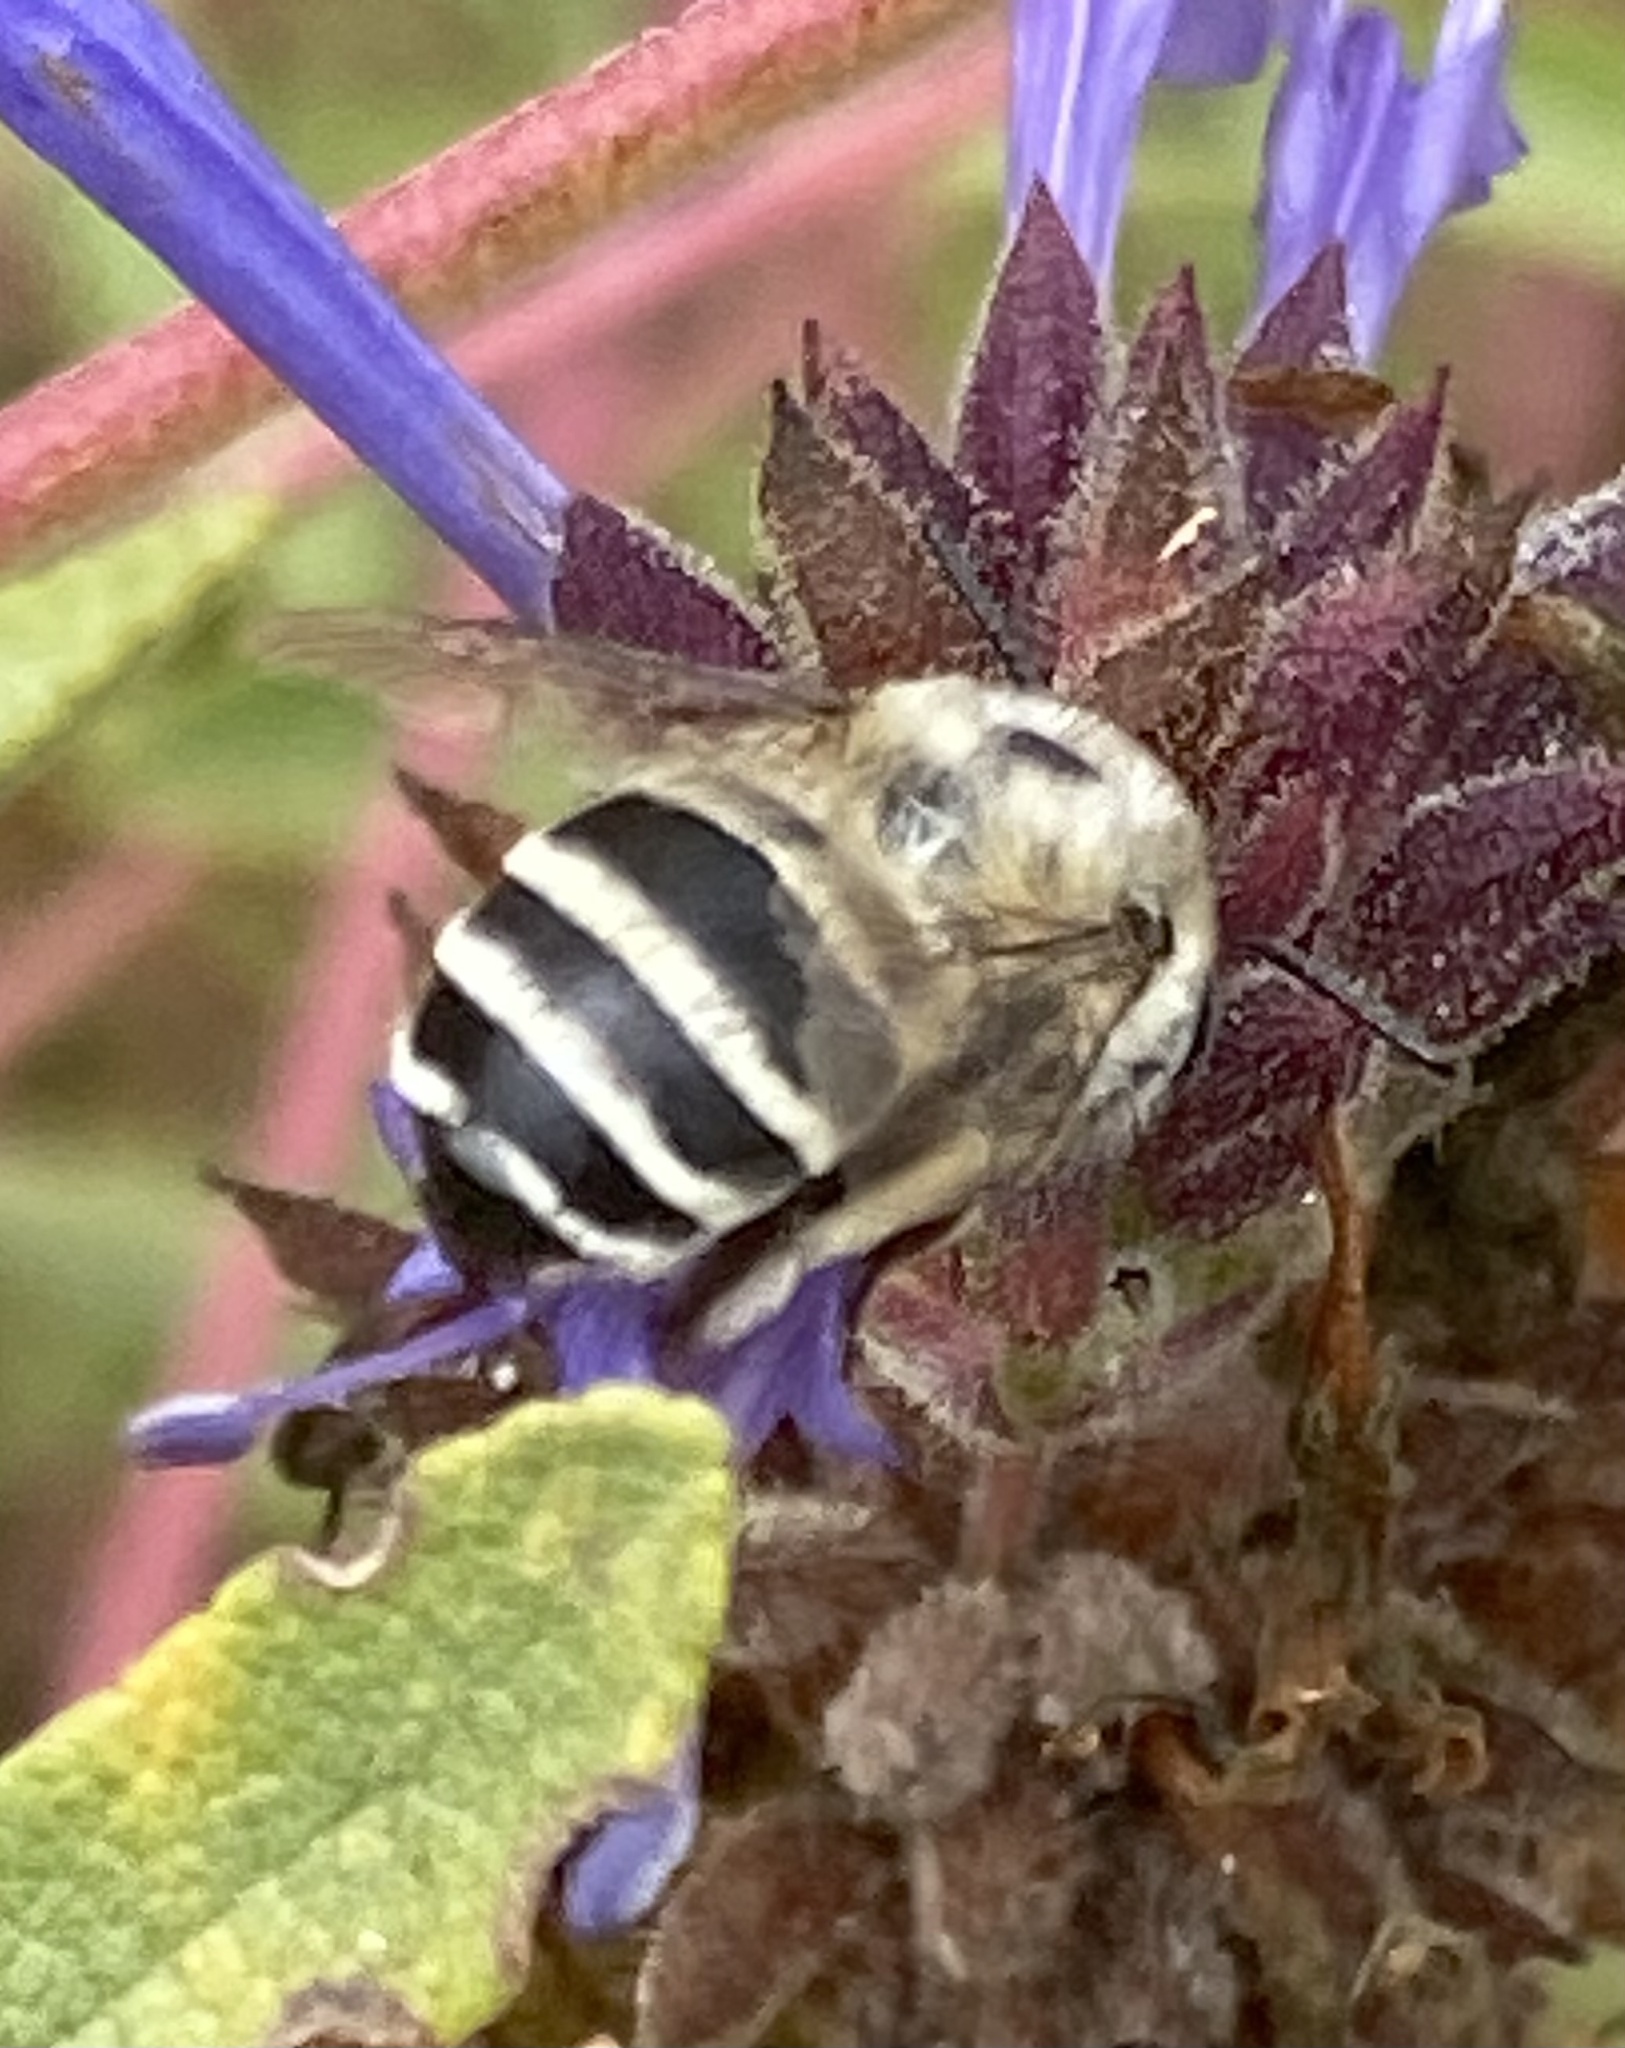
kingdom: Animalia
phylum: Arthropoda
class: Insecta
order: Hymenoptera
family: Apidae
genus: Anthophora
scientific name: Anthophora urbana
